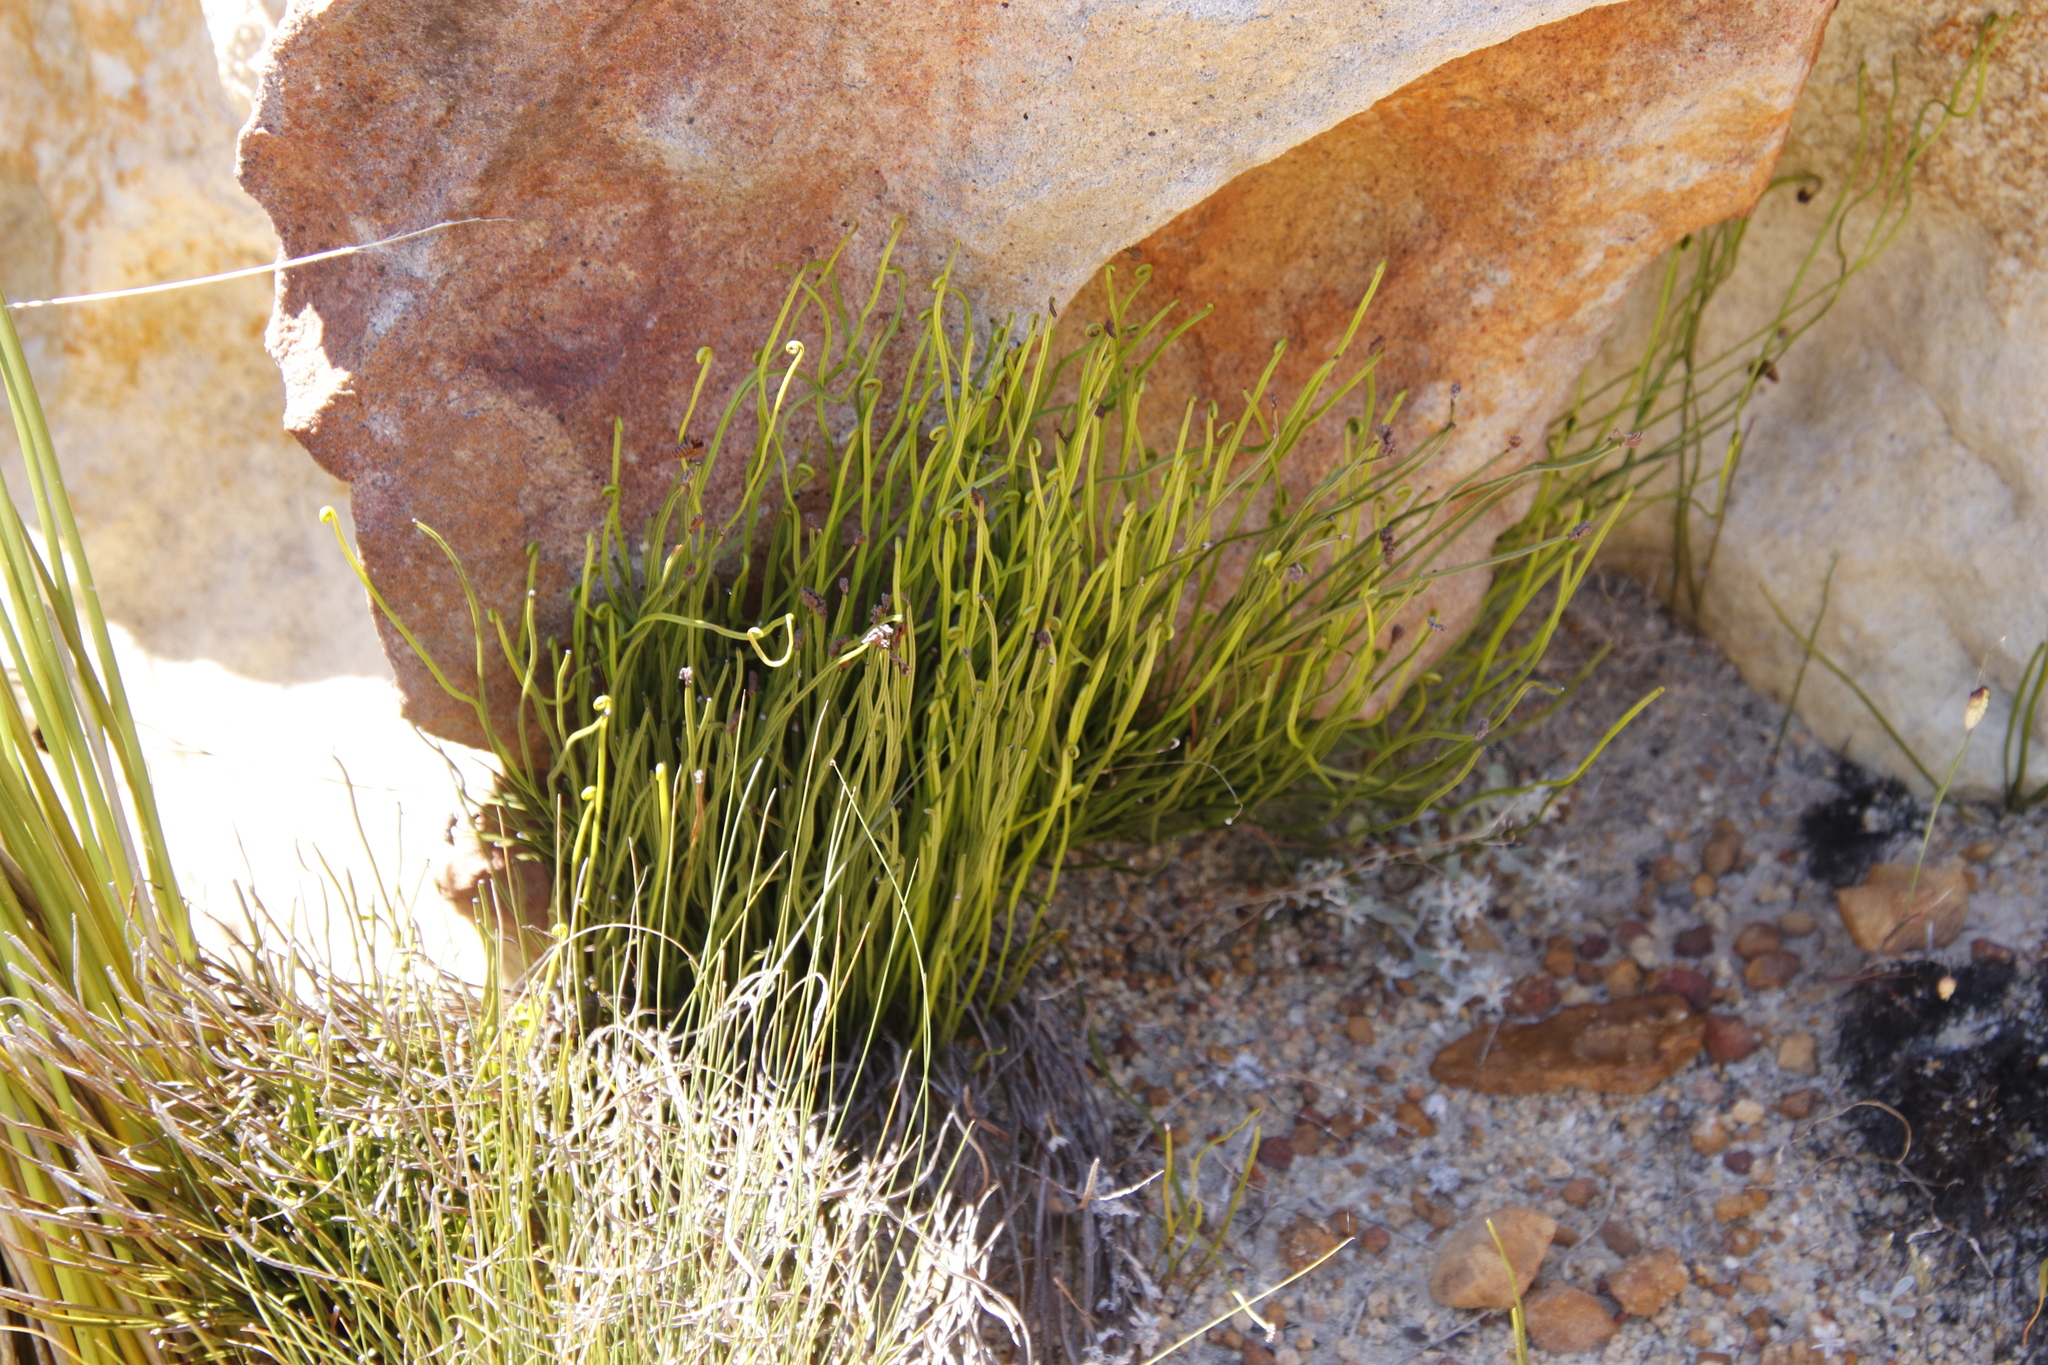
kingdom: Plantae
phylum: Tracheophyta
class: Polypodiopsida
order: Schizaeales
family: Schizaeaceae
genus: Schizaea
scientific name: Schizaea pectinata
